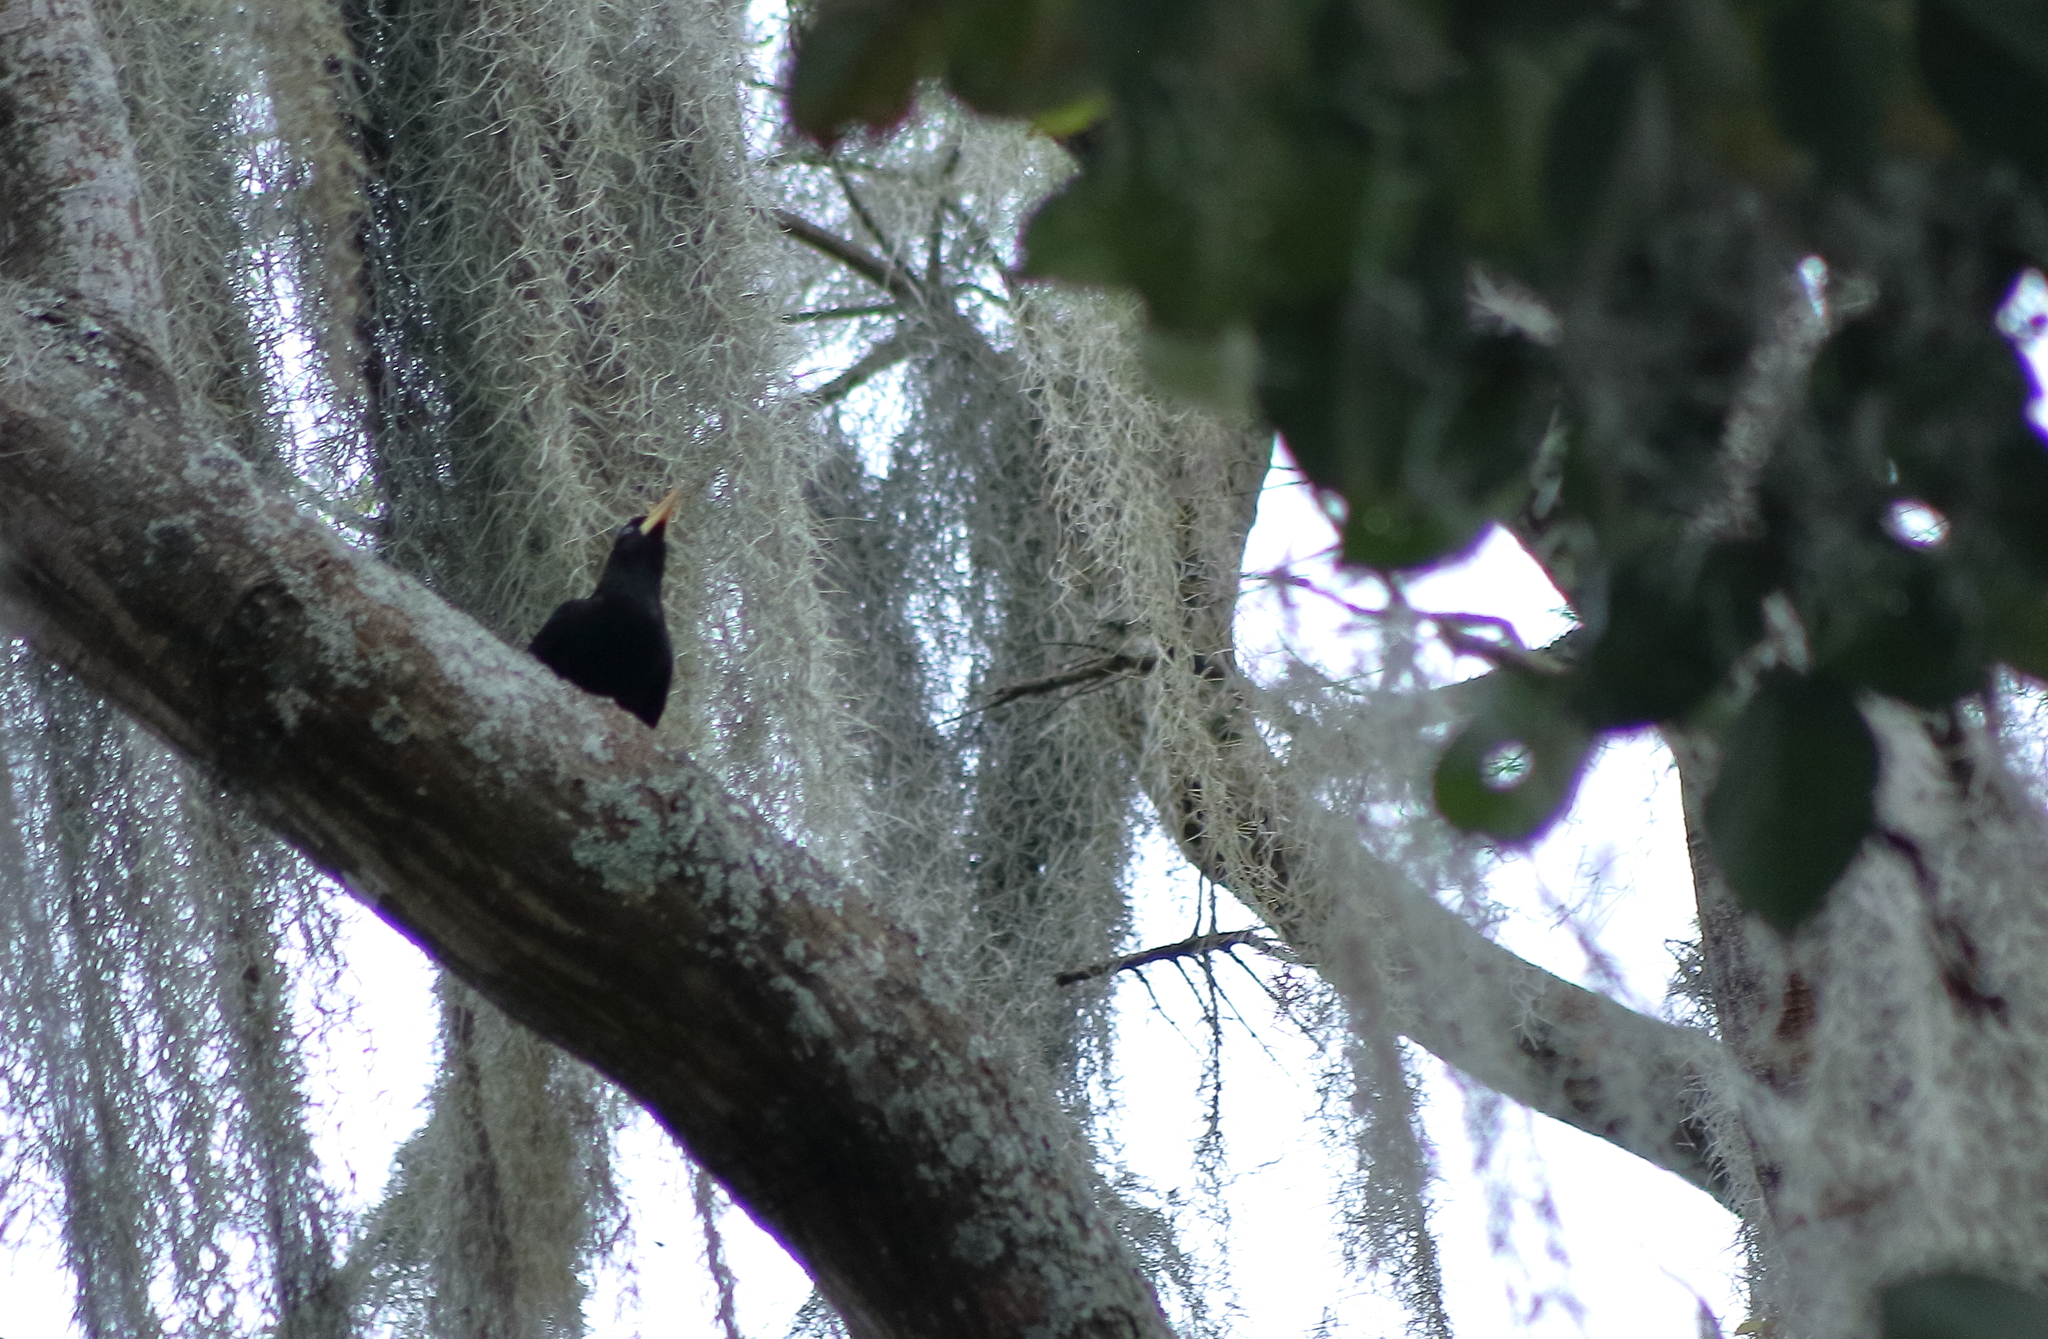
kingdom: Animalia
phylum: Chordata
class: Aves
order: Passeriformes
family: Icteridae
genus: Psarocolius
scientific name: Psarocolius decumanus
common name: Crested oropendola
